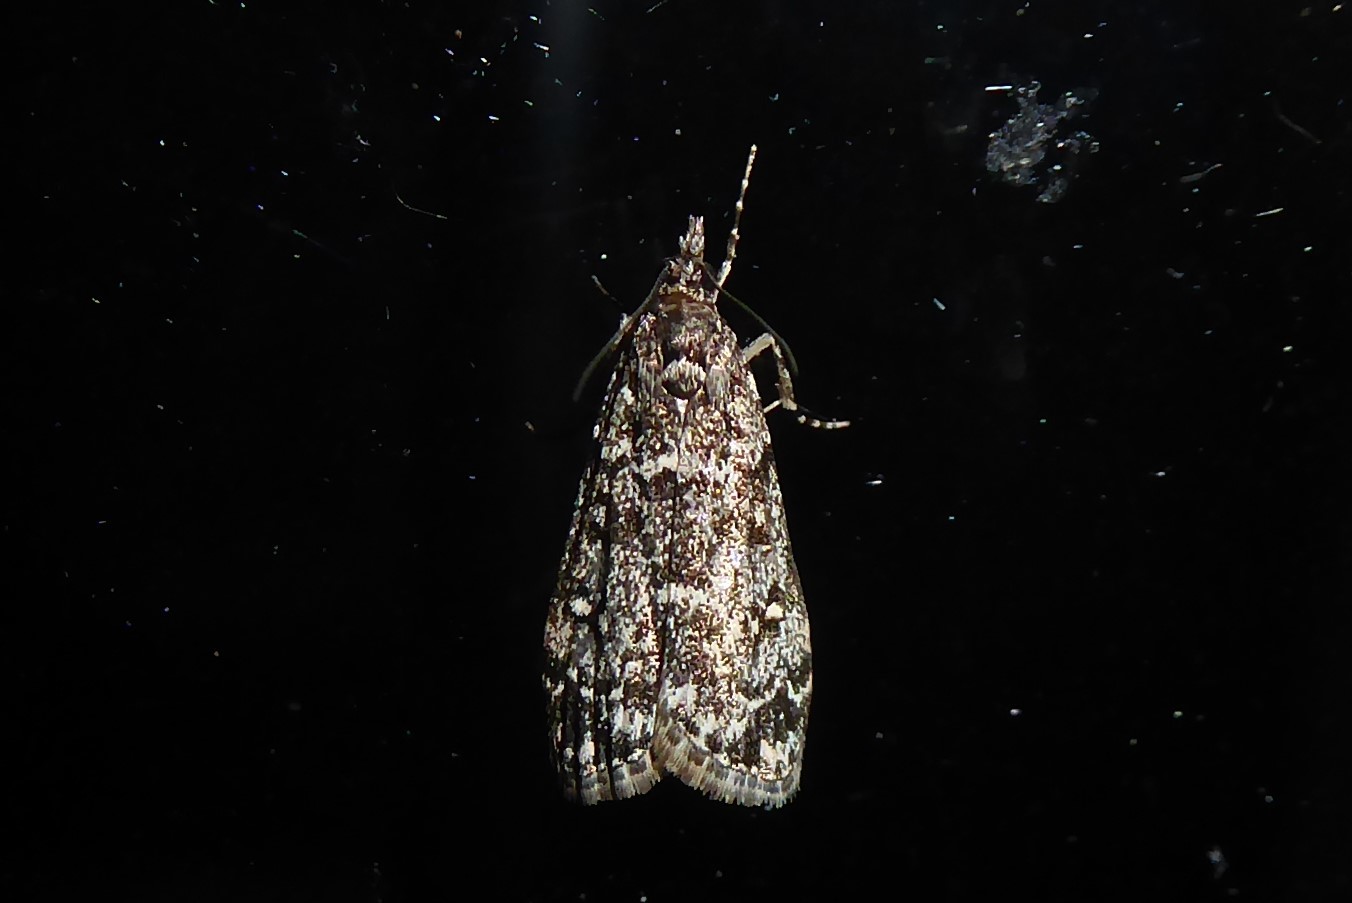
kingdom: Animalia
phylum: Arthropoda
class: Insecta
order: Lepidoptera
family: Crambidae
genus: Eudonia
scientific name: Eudonia philerga
